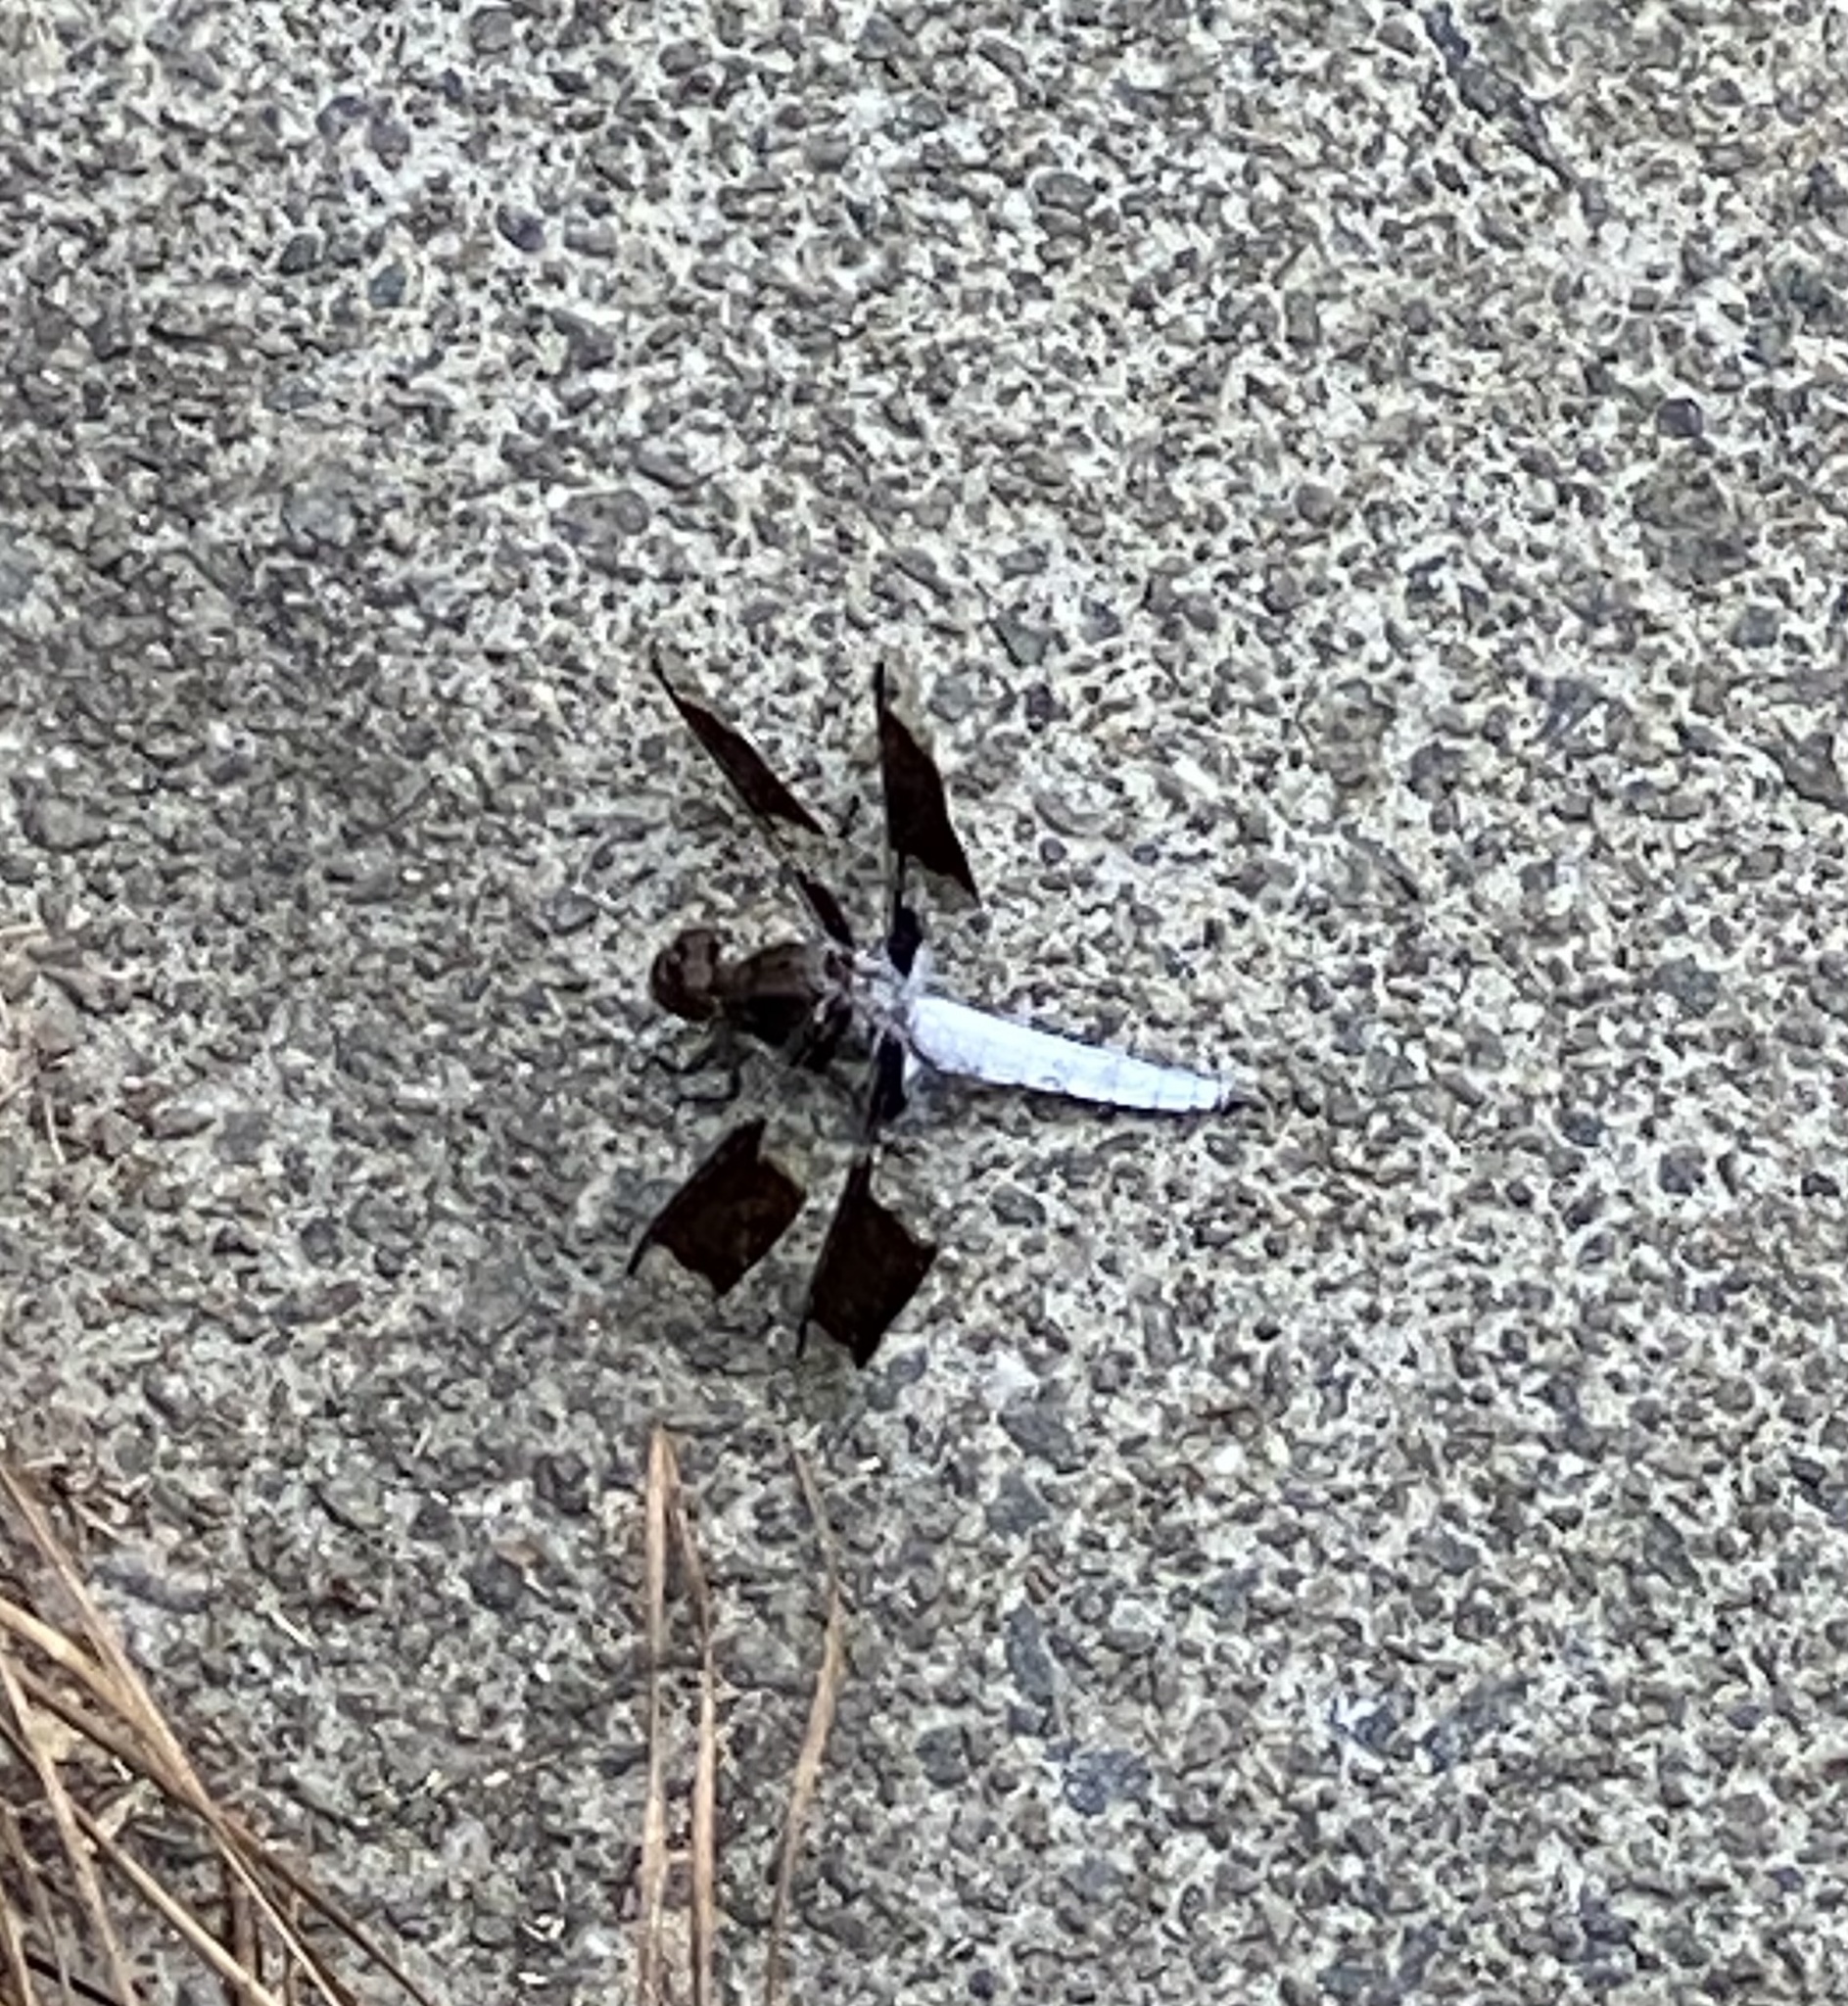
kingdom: Animalia
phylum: Arthropoda
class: Insecta
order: Odonata
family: Libellulidae
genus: Plathemis
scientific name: Plathemis lydia
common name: Common whitetail
